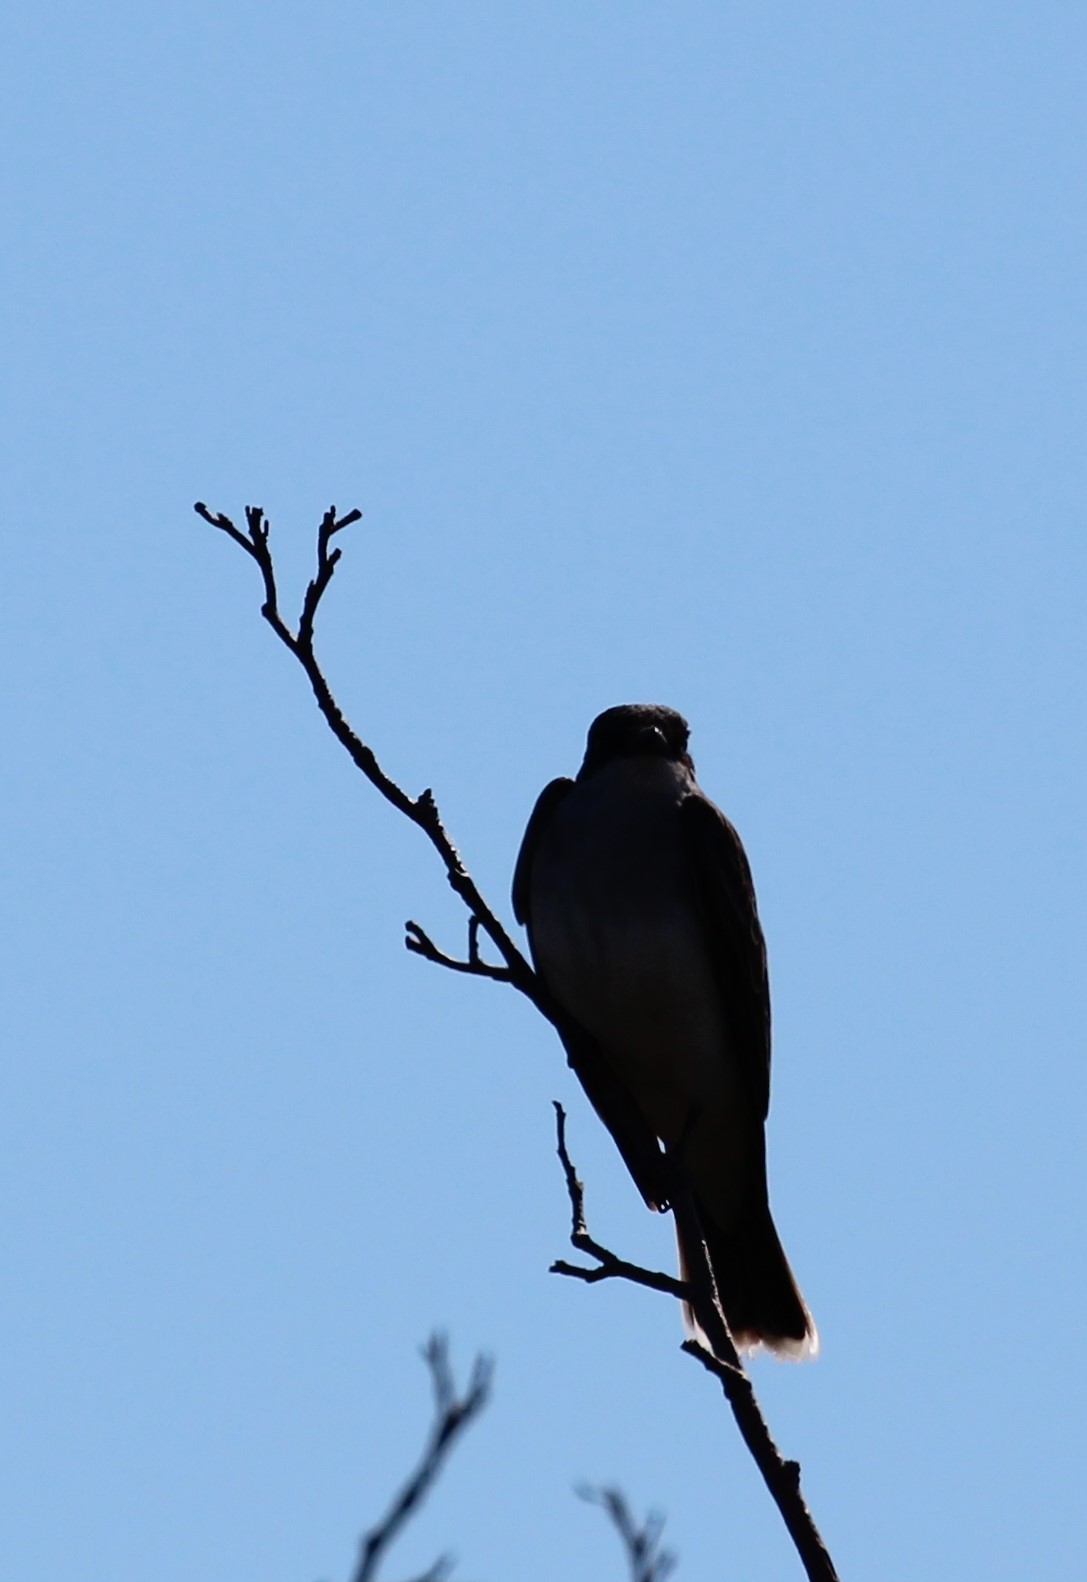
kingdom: Animalia
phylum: Chordata
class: Aves
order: Passeriformes
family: Tyrannidae
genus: Tyrannus
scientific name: Tyrannus tyrannus
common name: Eastern kingbird
